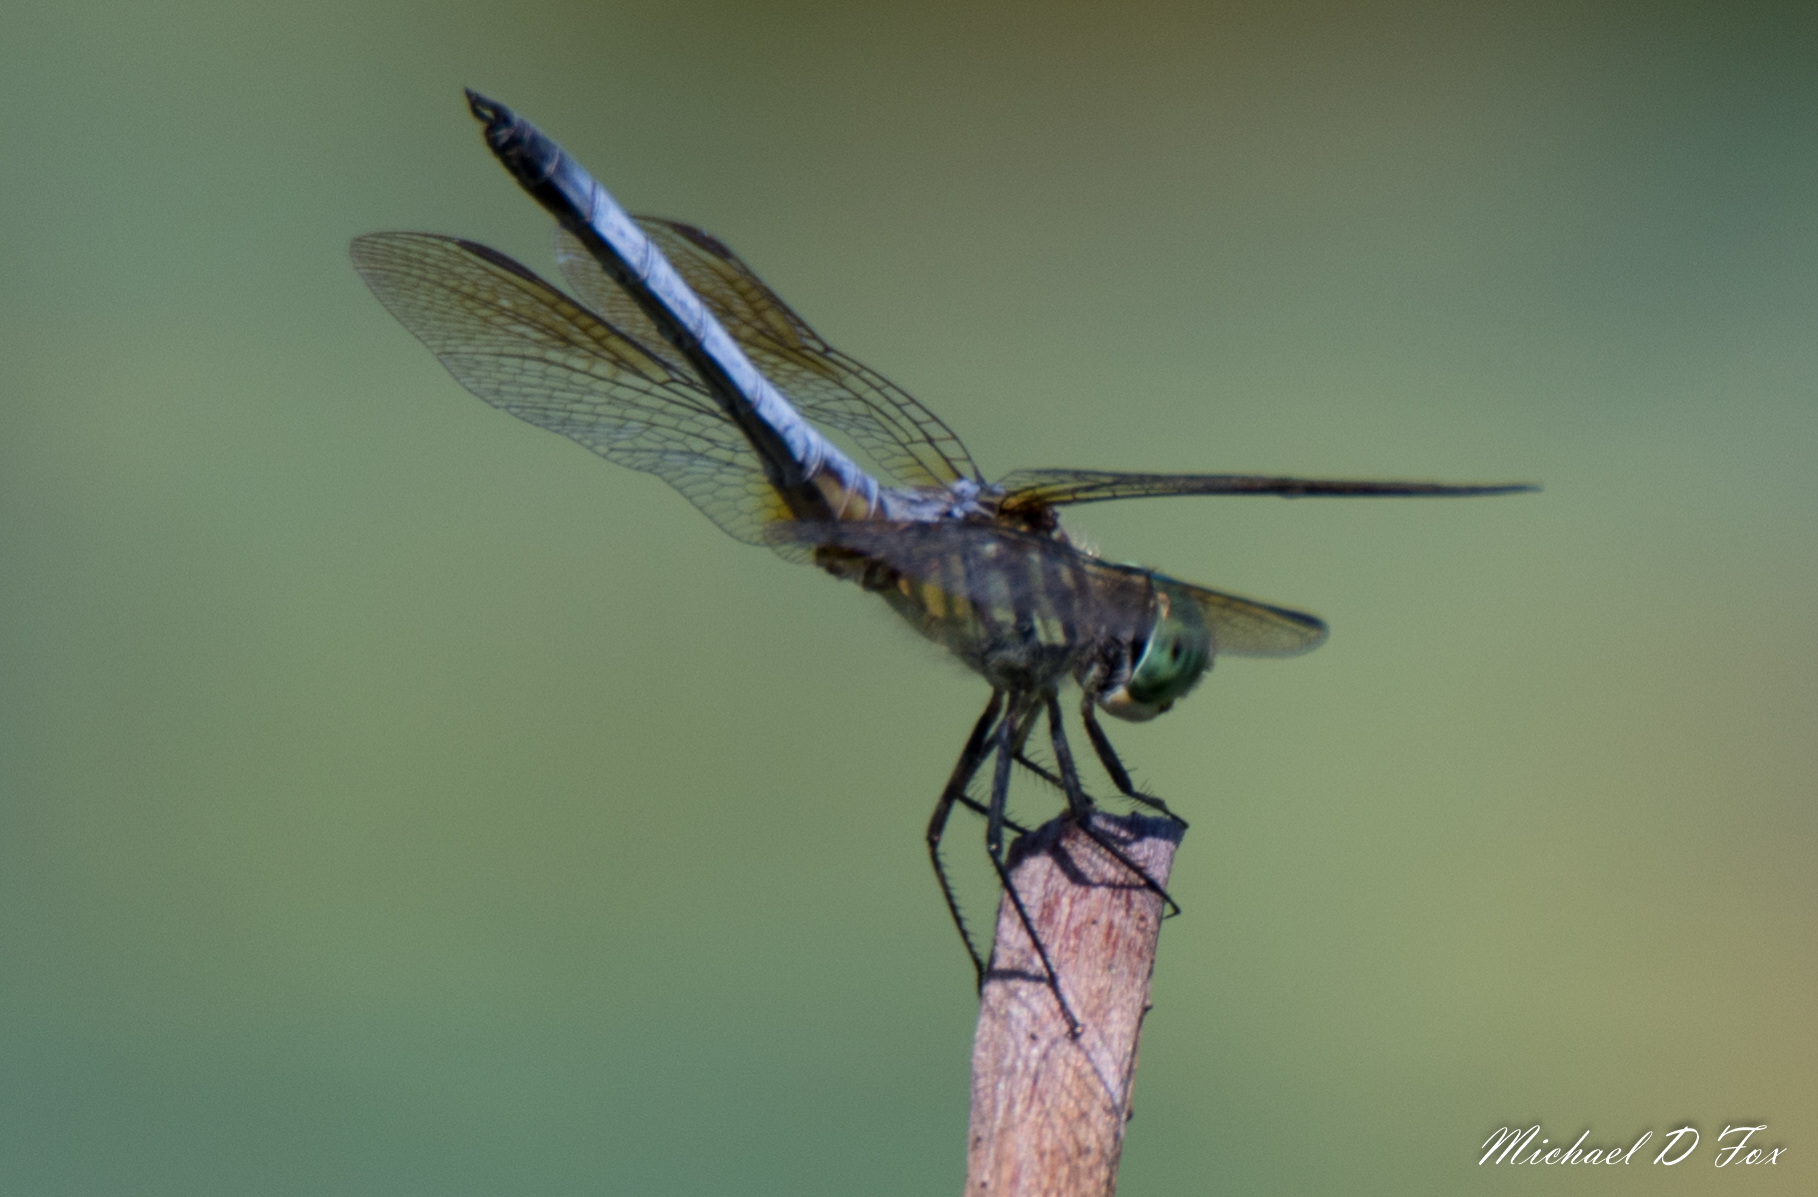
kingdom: Animalia
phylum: Arthropoda
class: Insecta
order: Odonata
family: Libellulidae
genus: Pachydiplax
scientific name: Pachydiplax longipennis
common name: Blue dasher
